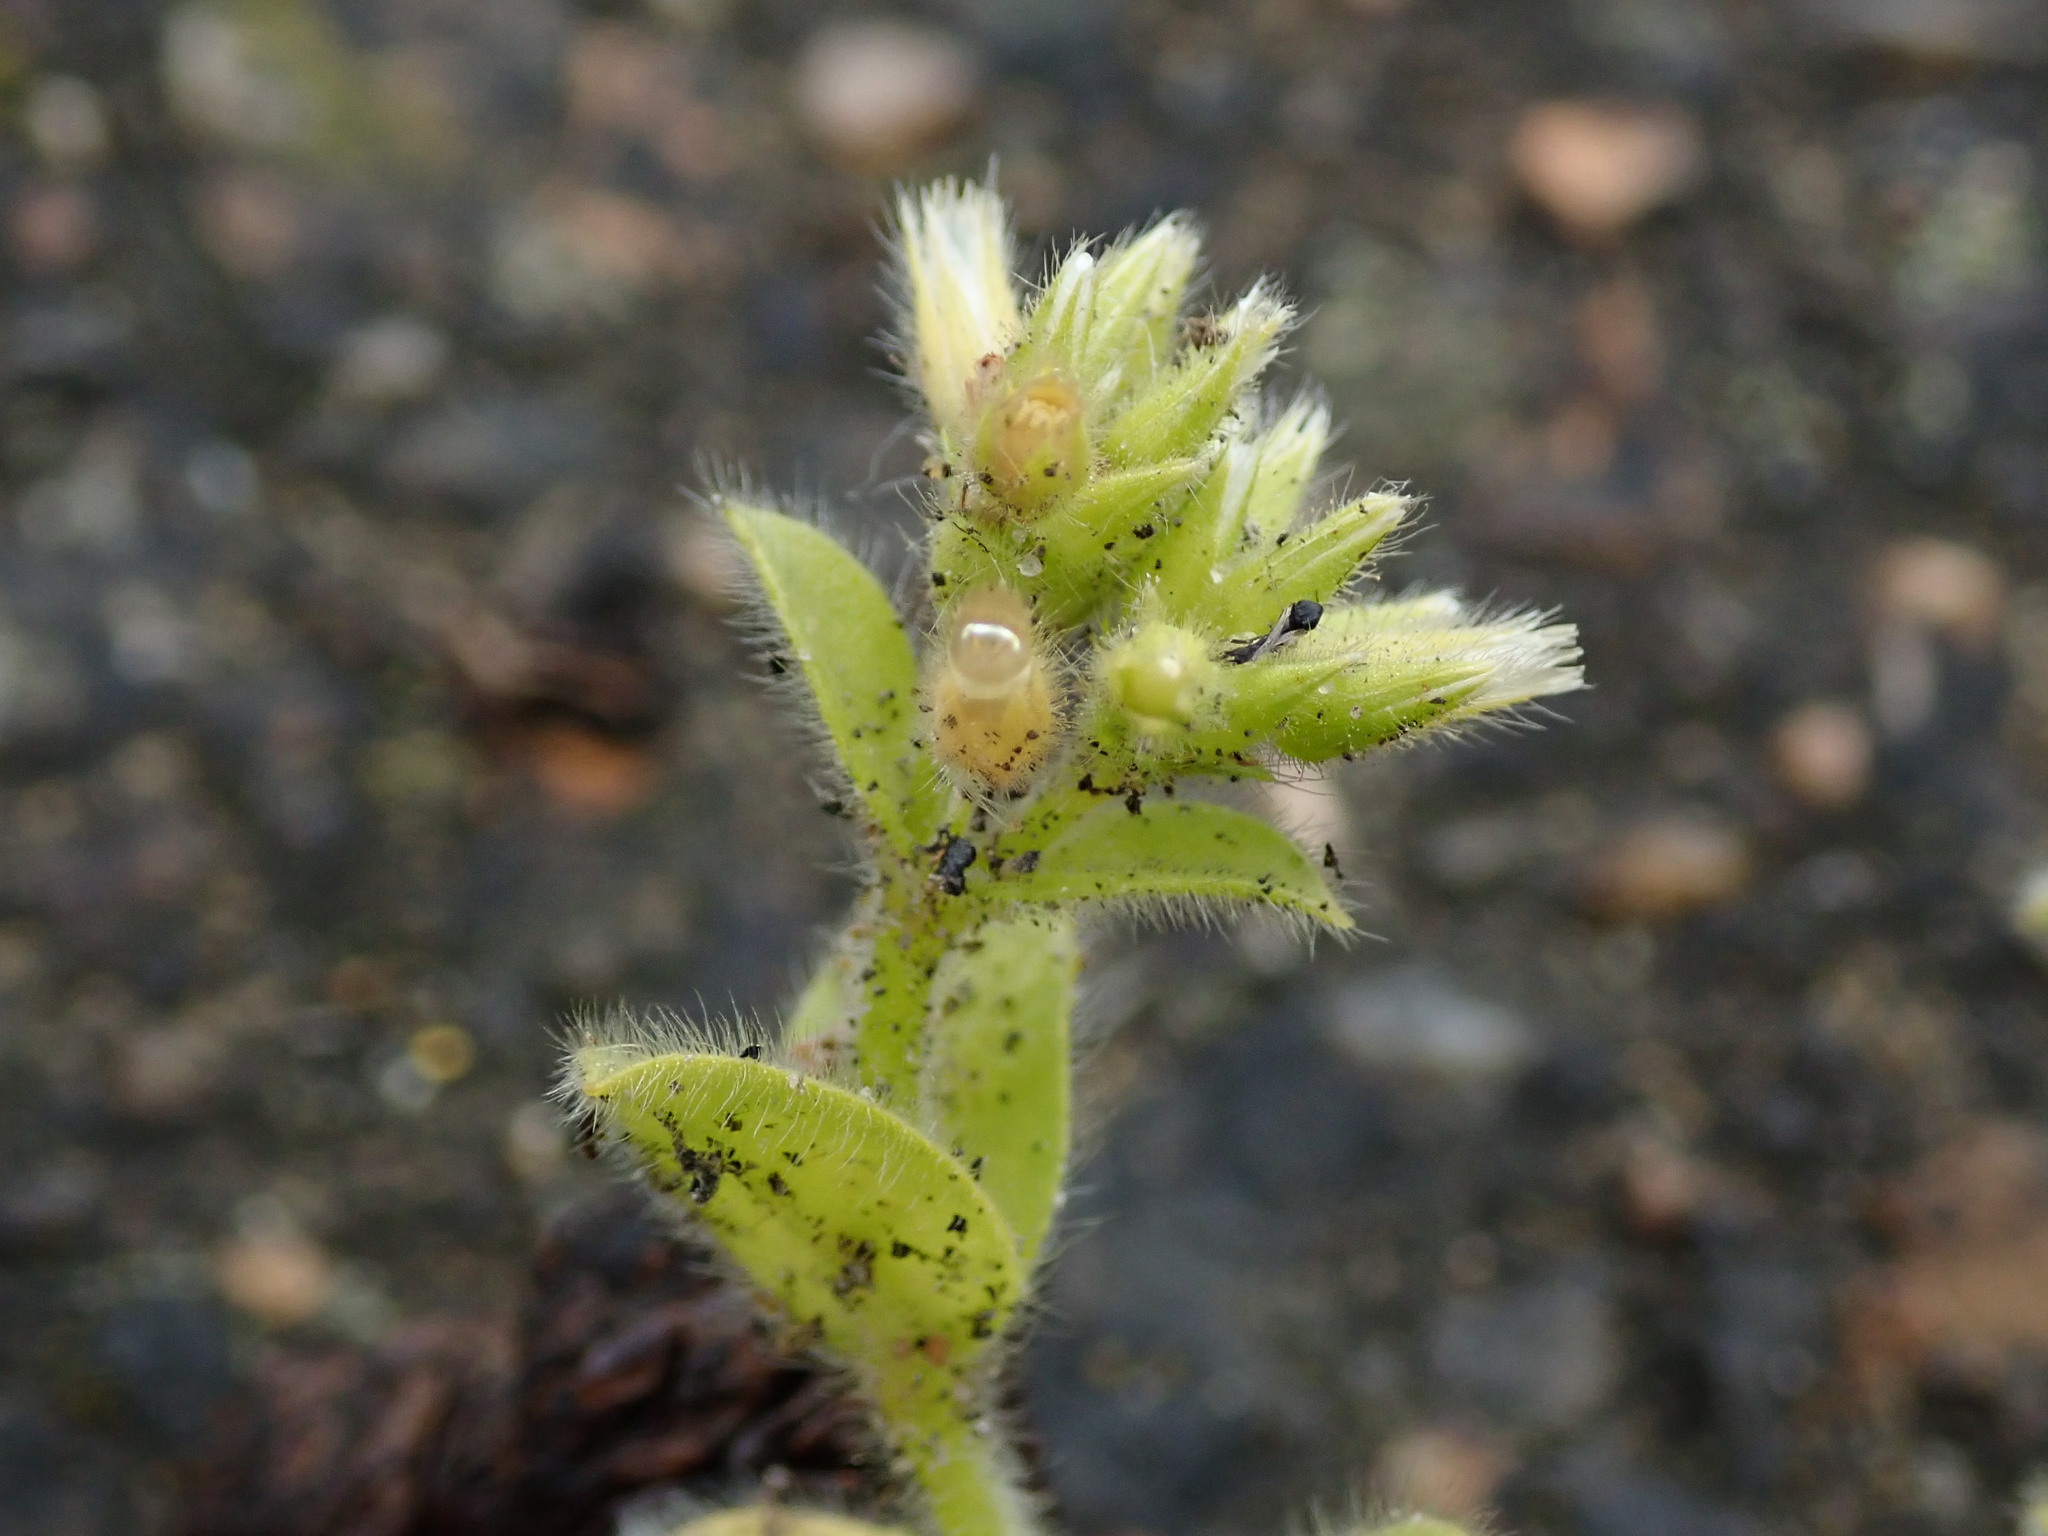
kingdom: Plantae
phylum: Tracheophyta
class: Magnoliopsida
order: Caryophyllales
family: Caryophyllaceae
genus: Cerastium
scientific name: Cerastium glomeratum
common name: Sticky chickweed
